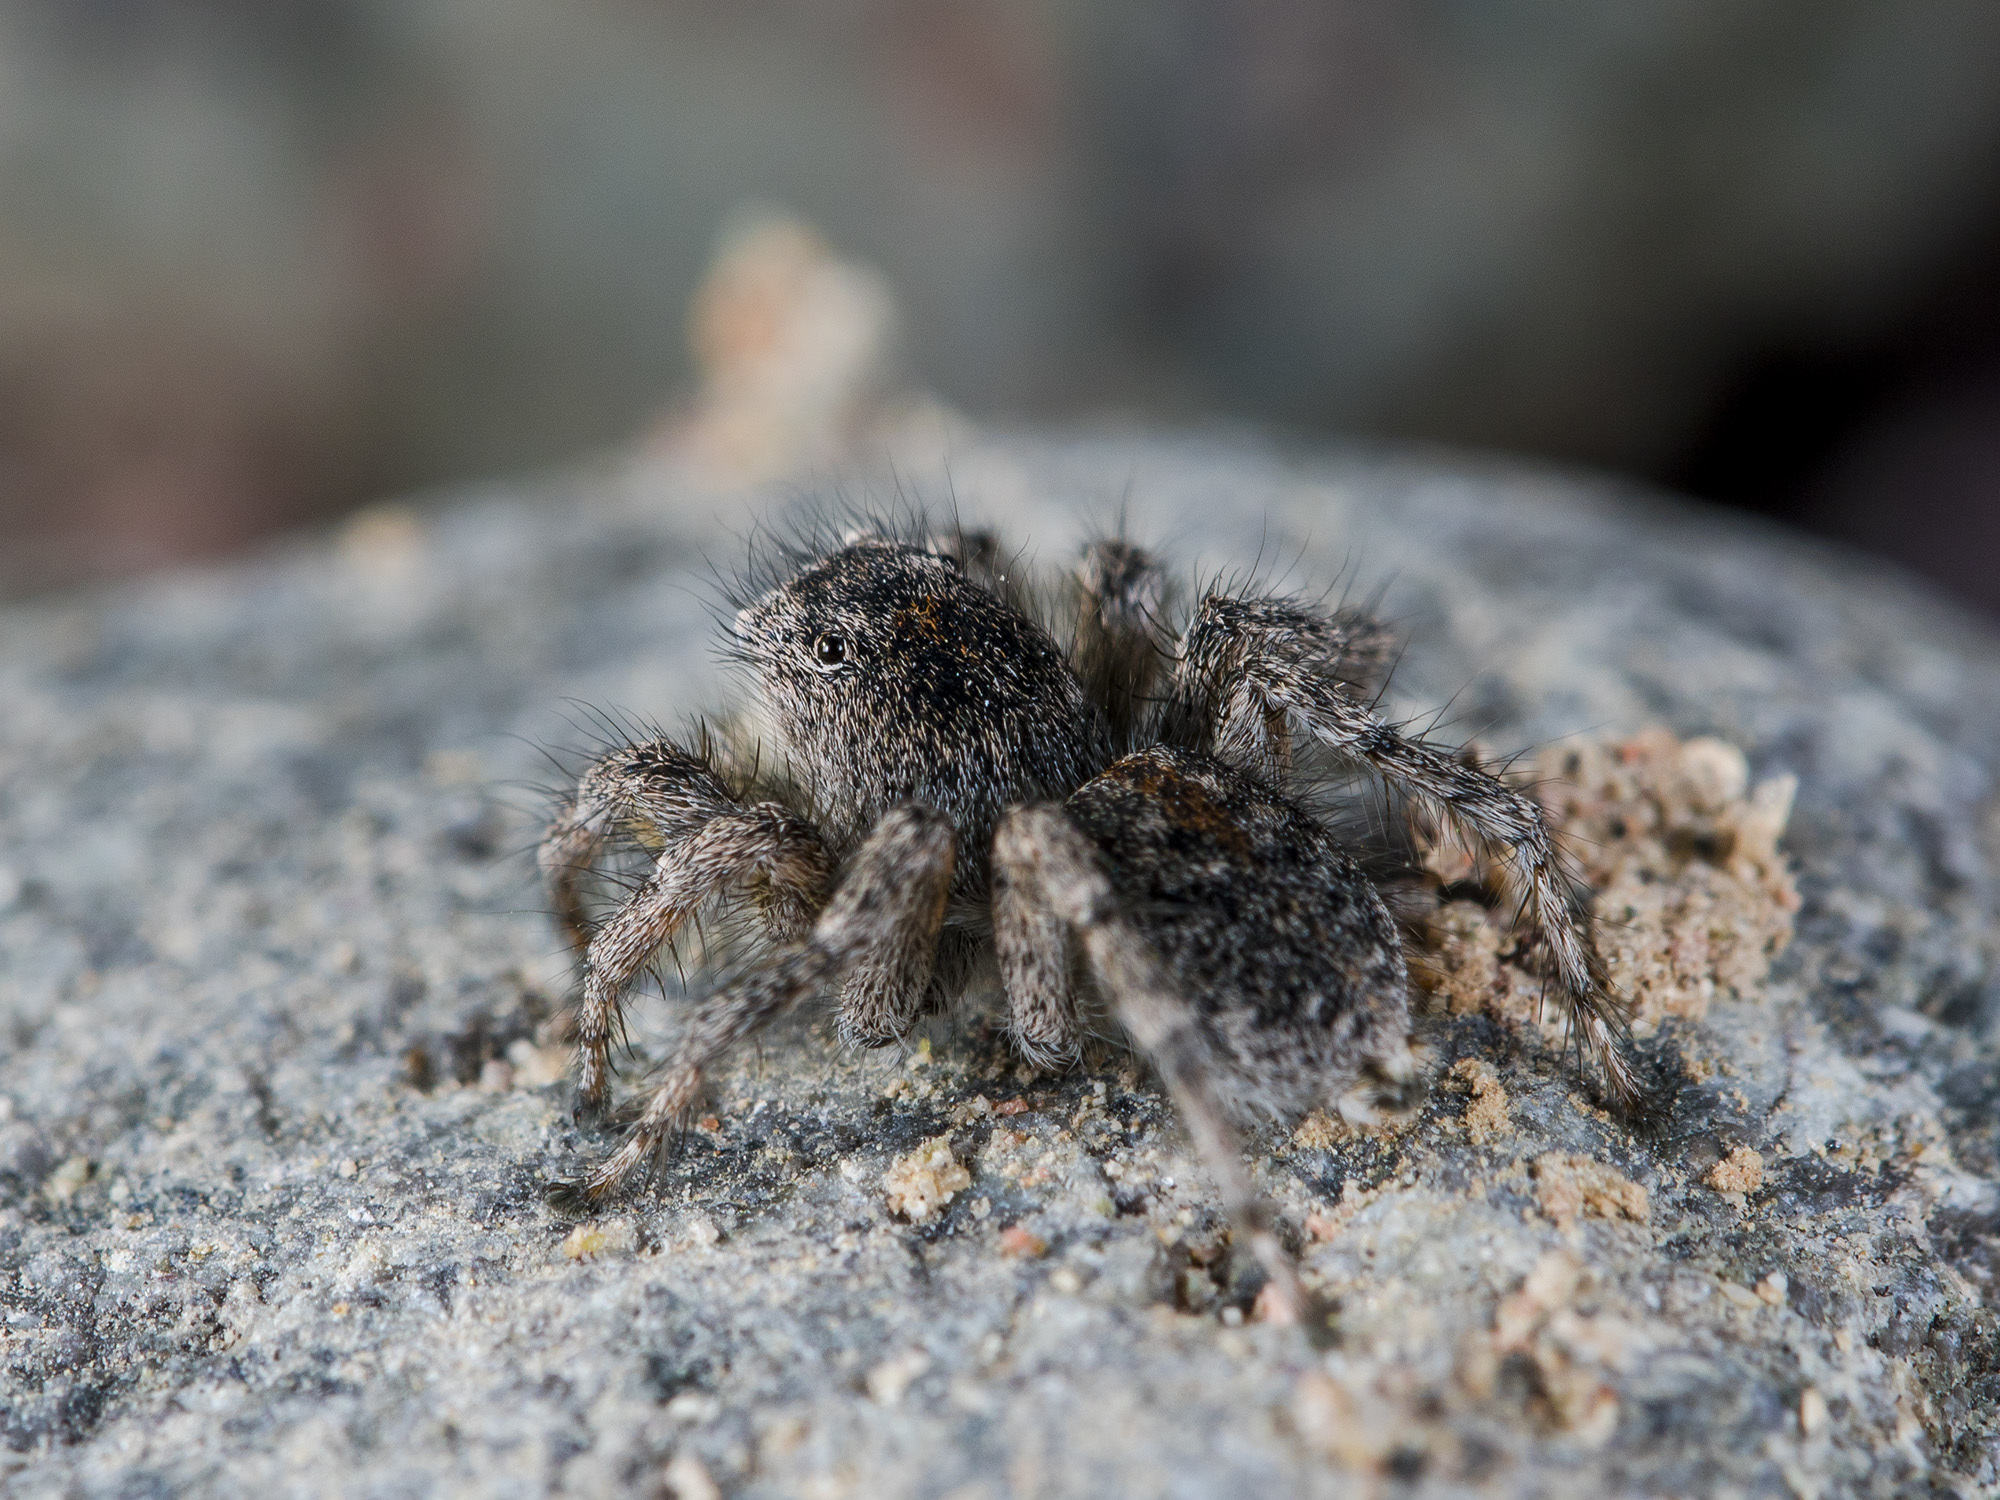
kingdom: Animalia
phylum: Arthropoda
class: Arachnida
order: Araneae
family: Salticidae
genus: Aelurillus
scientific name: Aelurillus dubatolovi
